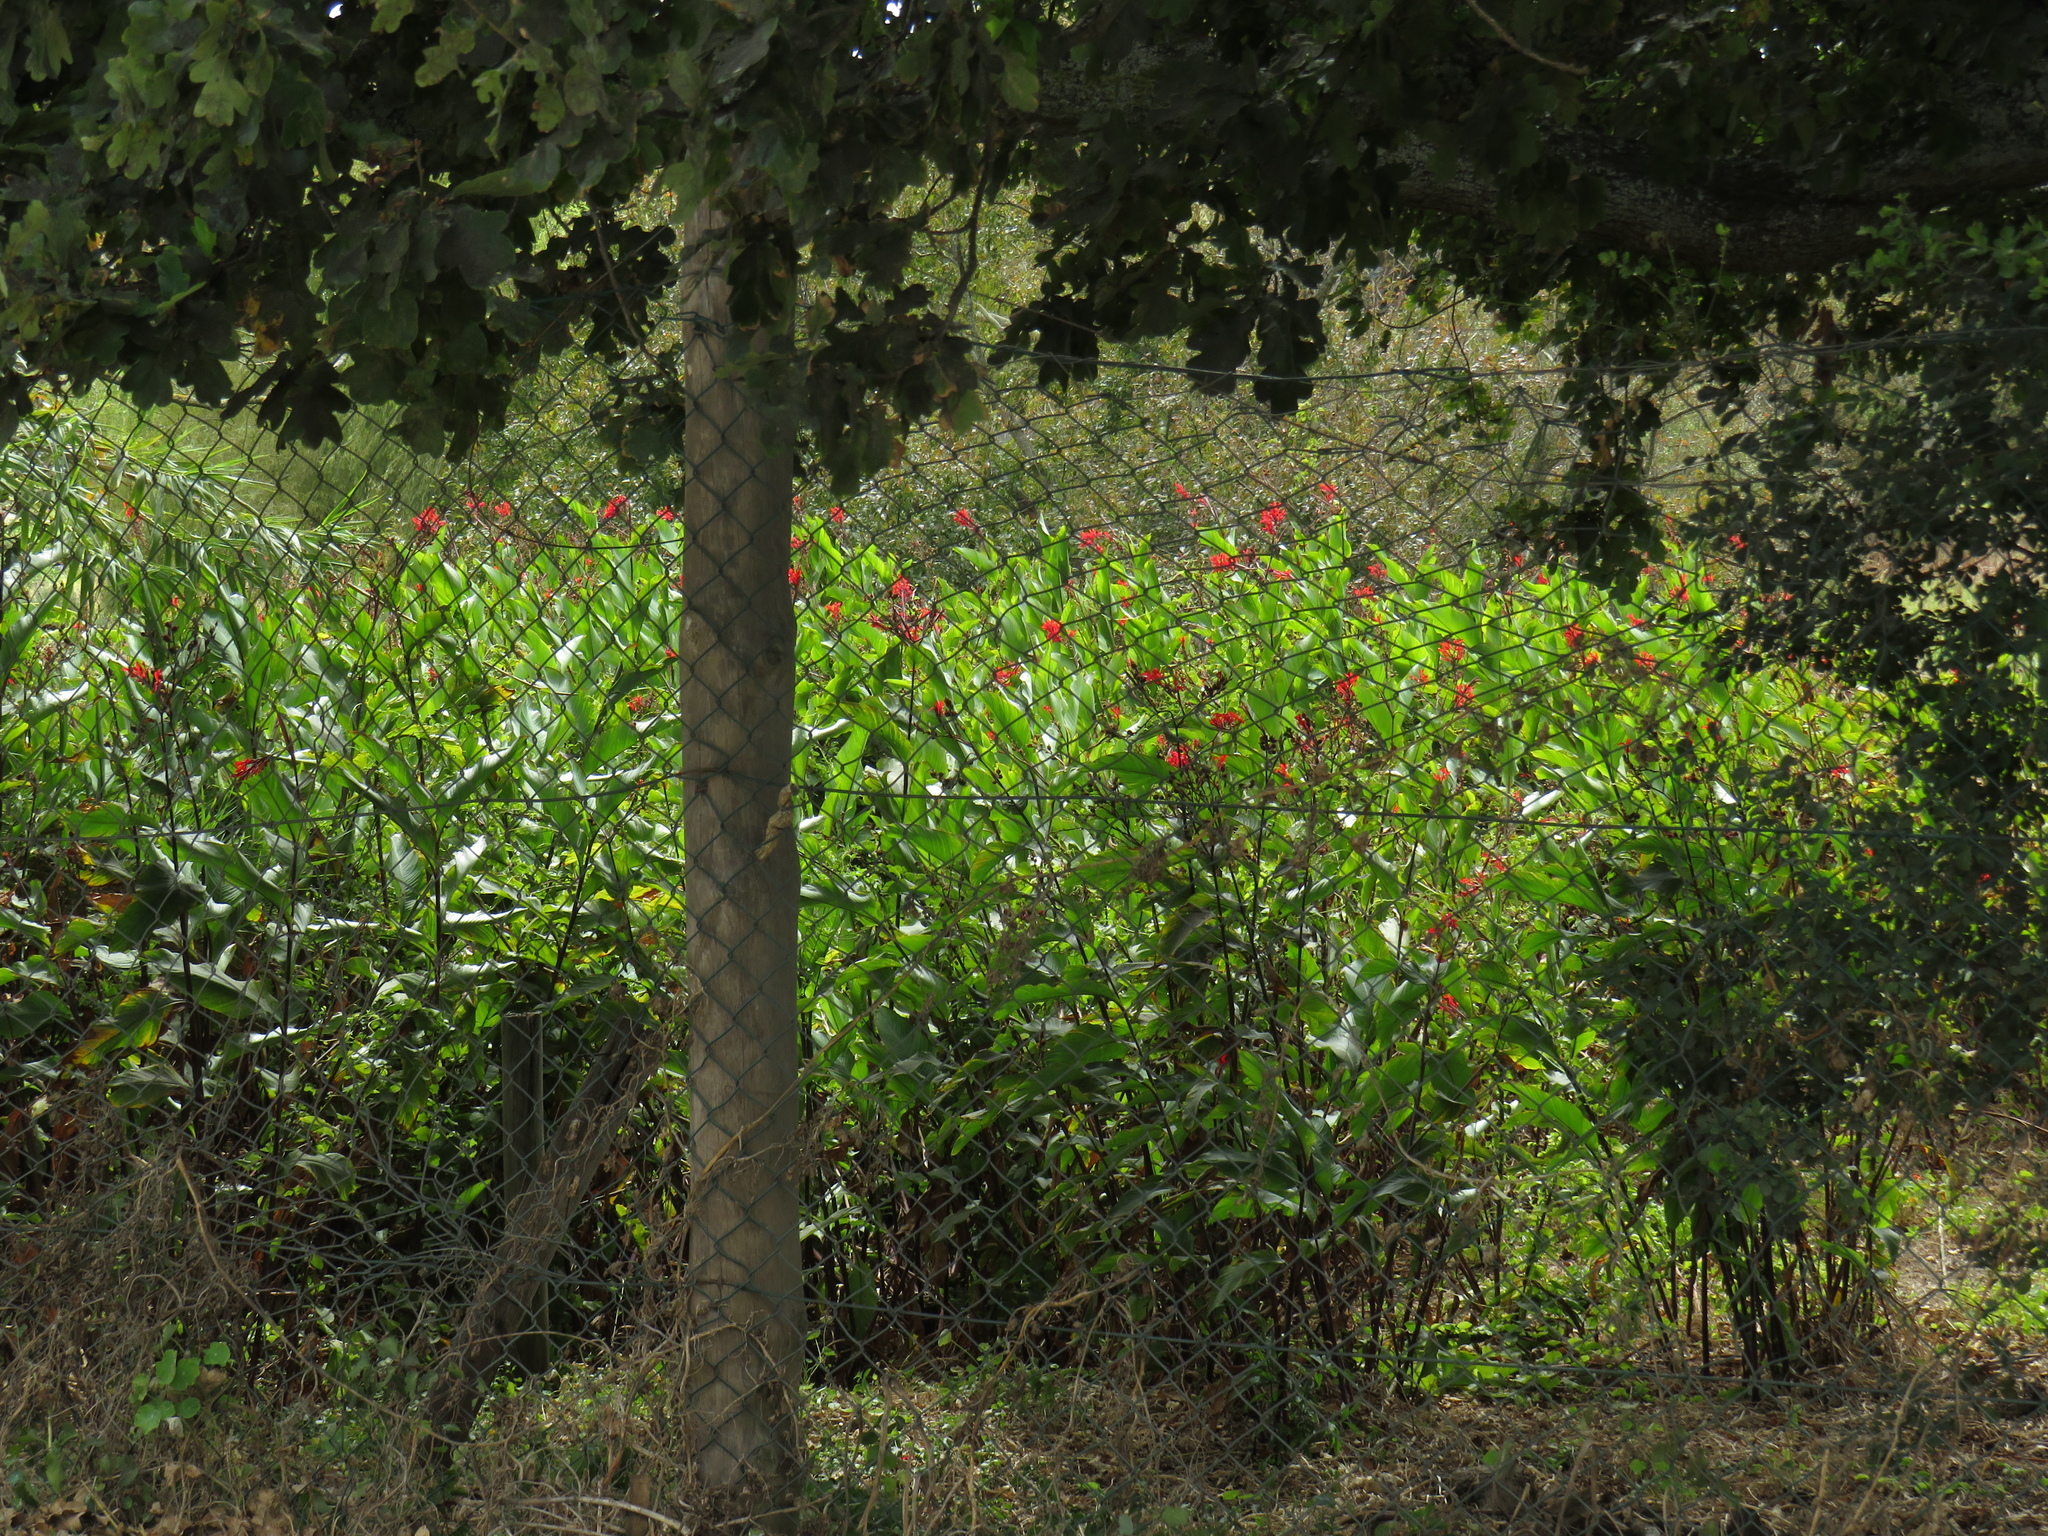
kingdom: Plantae
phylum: Tracheophyta
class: Liliopsida
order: Zingiberales
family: Cannaceae
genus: Canna
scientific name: Canna indica
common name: Indian shot
